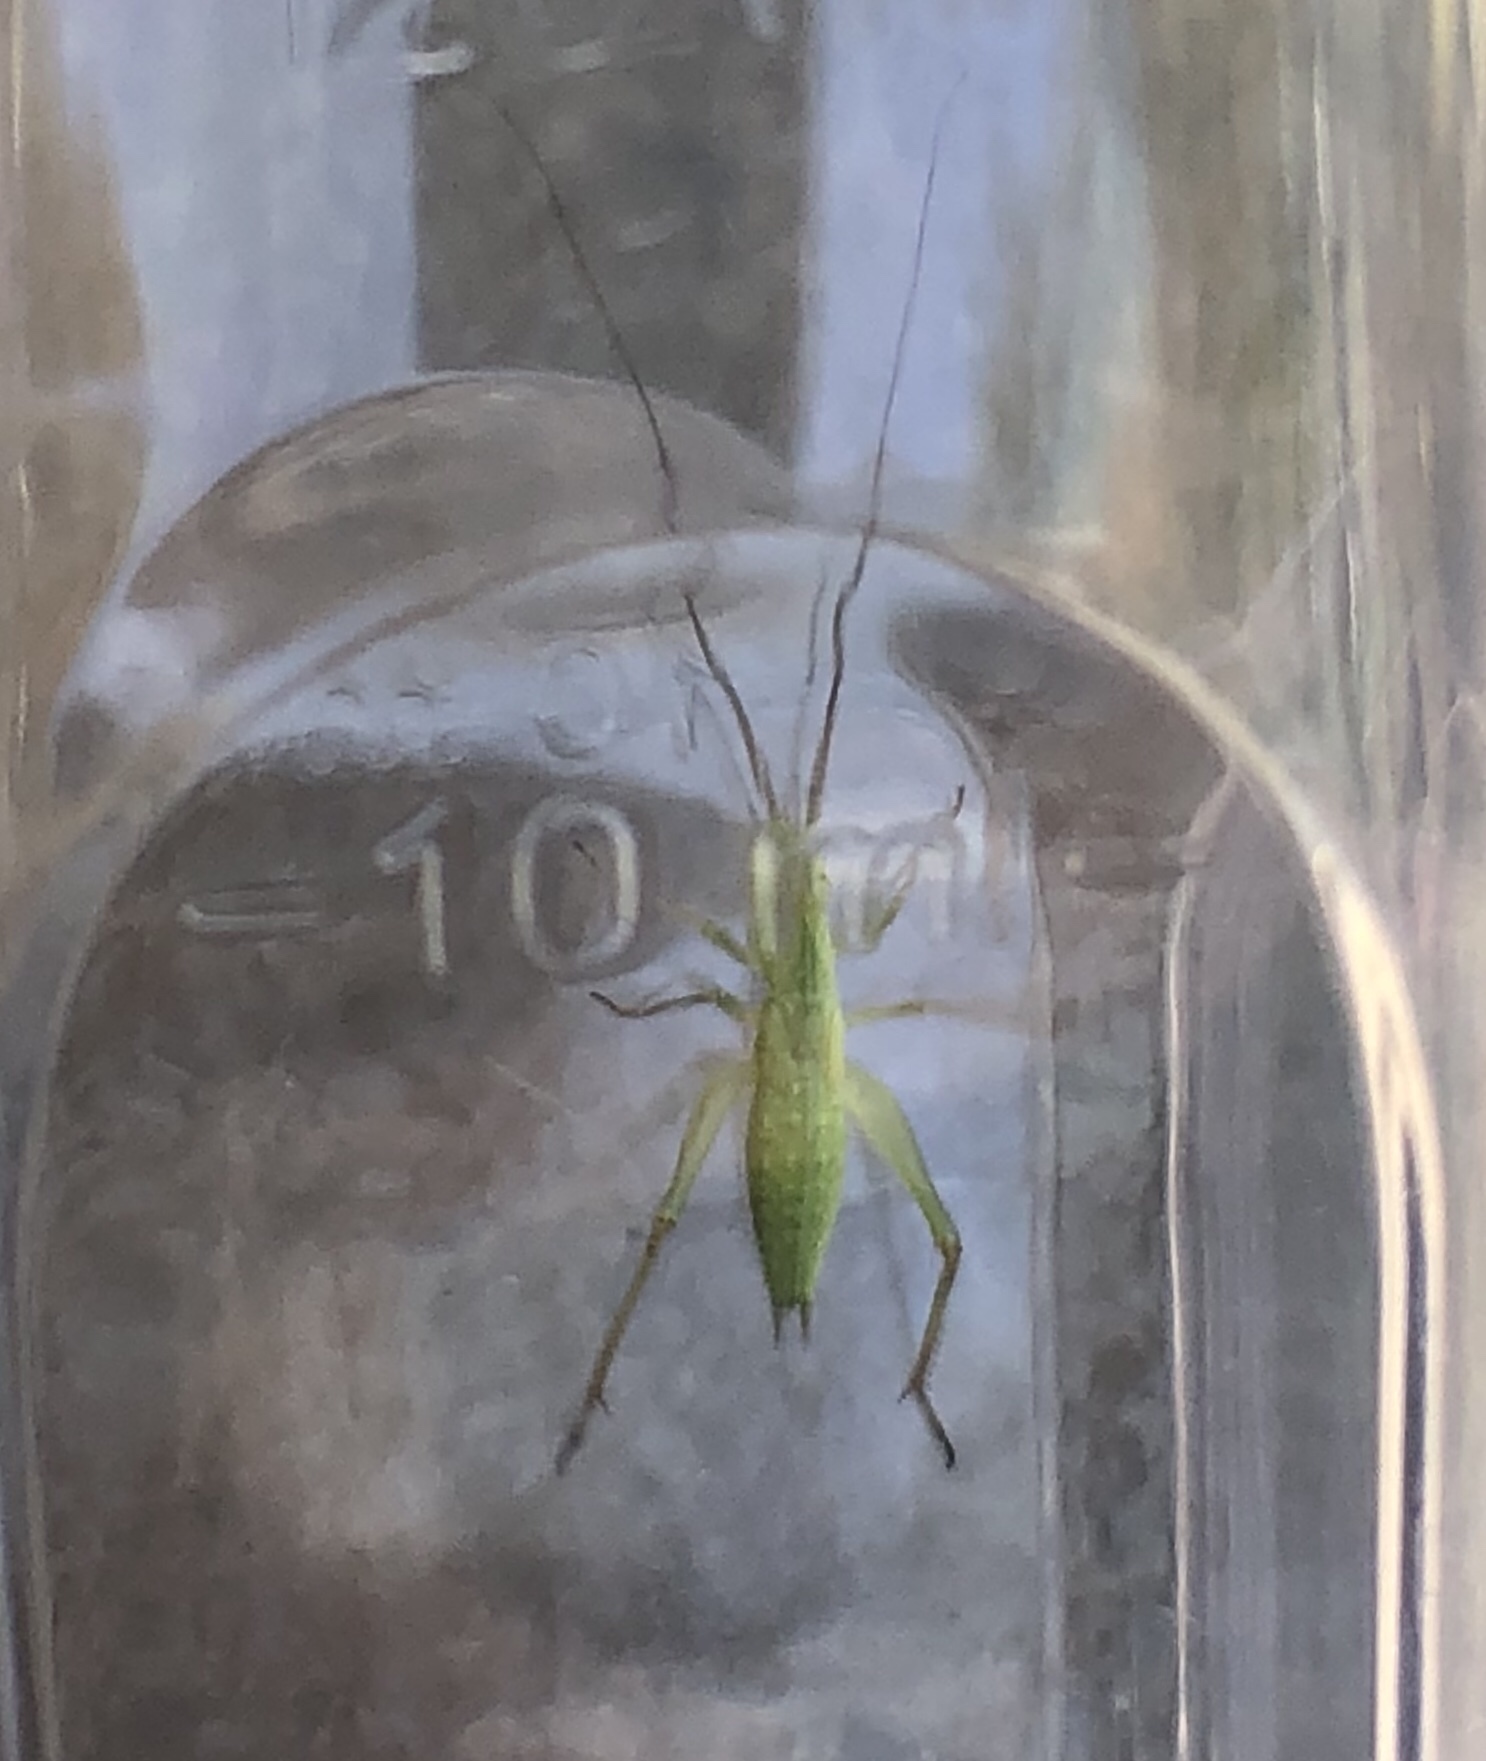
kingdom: Animalia
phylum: Arthropoda
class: Insecta
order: Orthoptera
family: Gryllidae
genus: Oecanthus
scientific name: Oecanthus argentinus
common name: Prairie tree cricket
